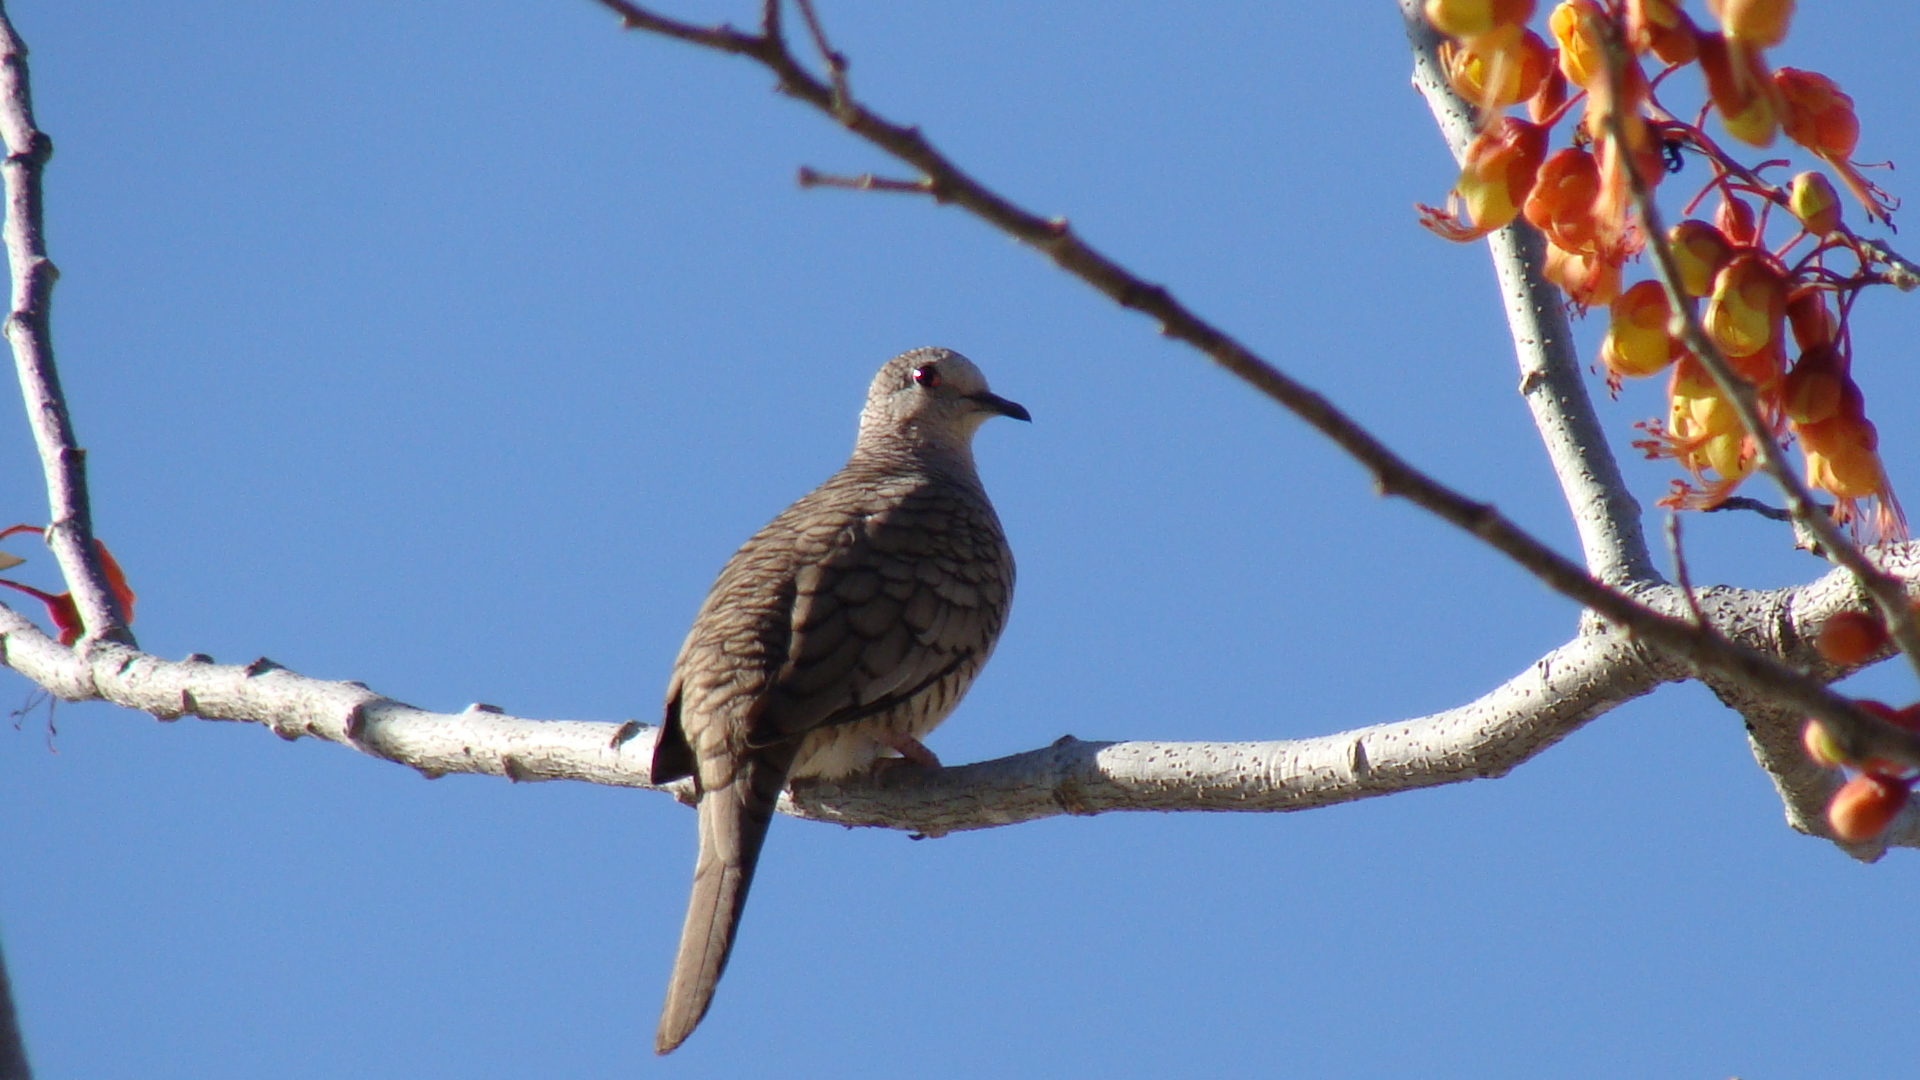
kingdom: Animalia
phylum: Chordata
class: Aves
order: Columbiformes
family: Columbidae
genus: Columbina
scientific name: Columbina inca
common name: Inca dove
